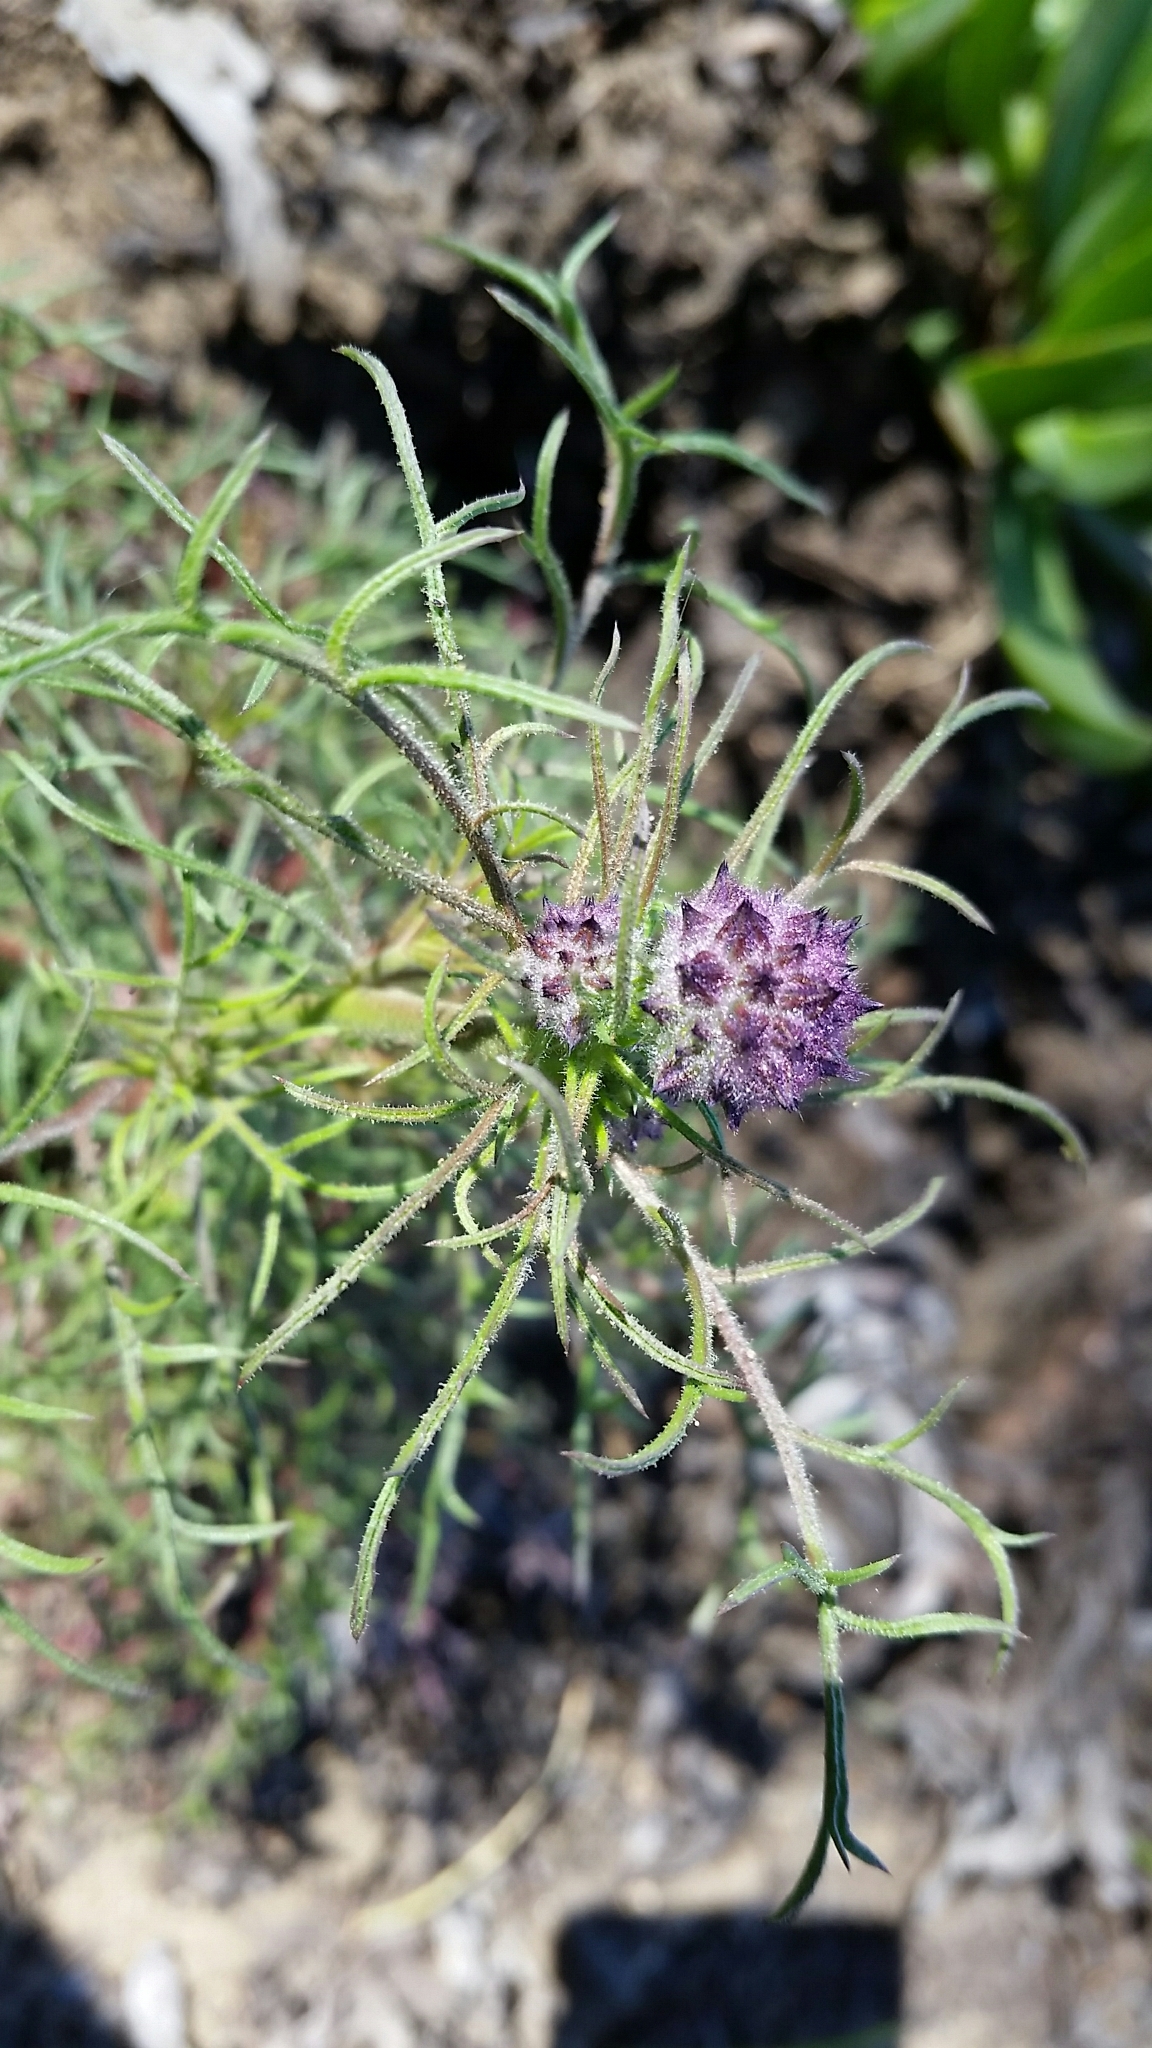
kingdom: Plantae
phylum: Tracheophyta
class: Magnoliopsida
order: Ericales
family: Polemoniaceae
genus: Gilia
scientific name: Gilia capitata
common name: Bluehead gilia
